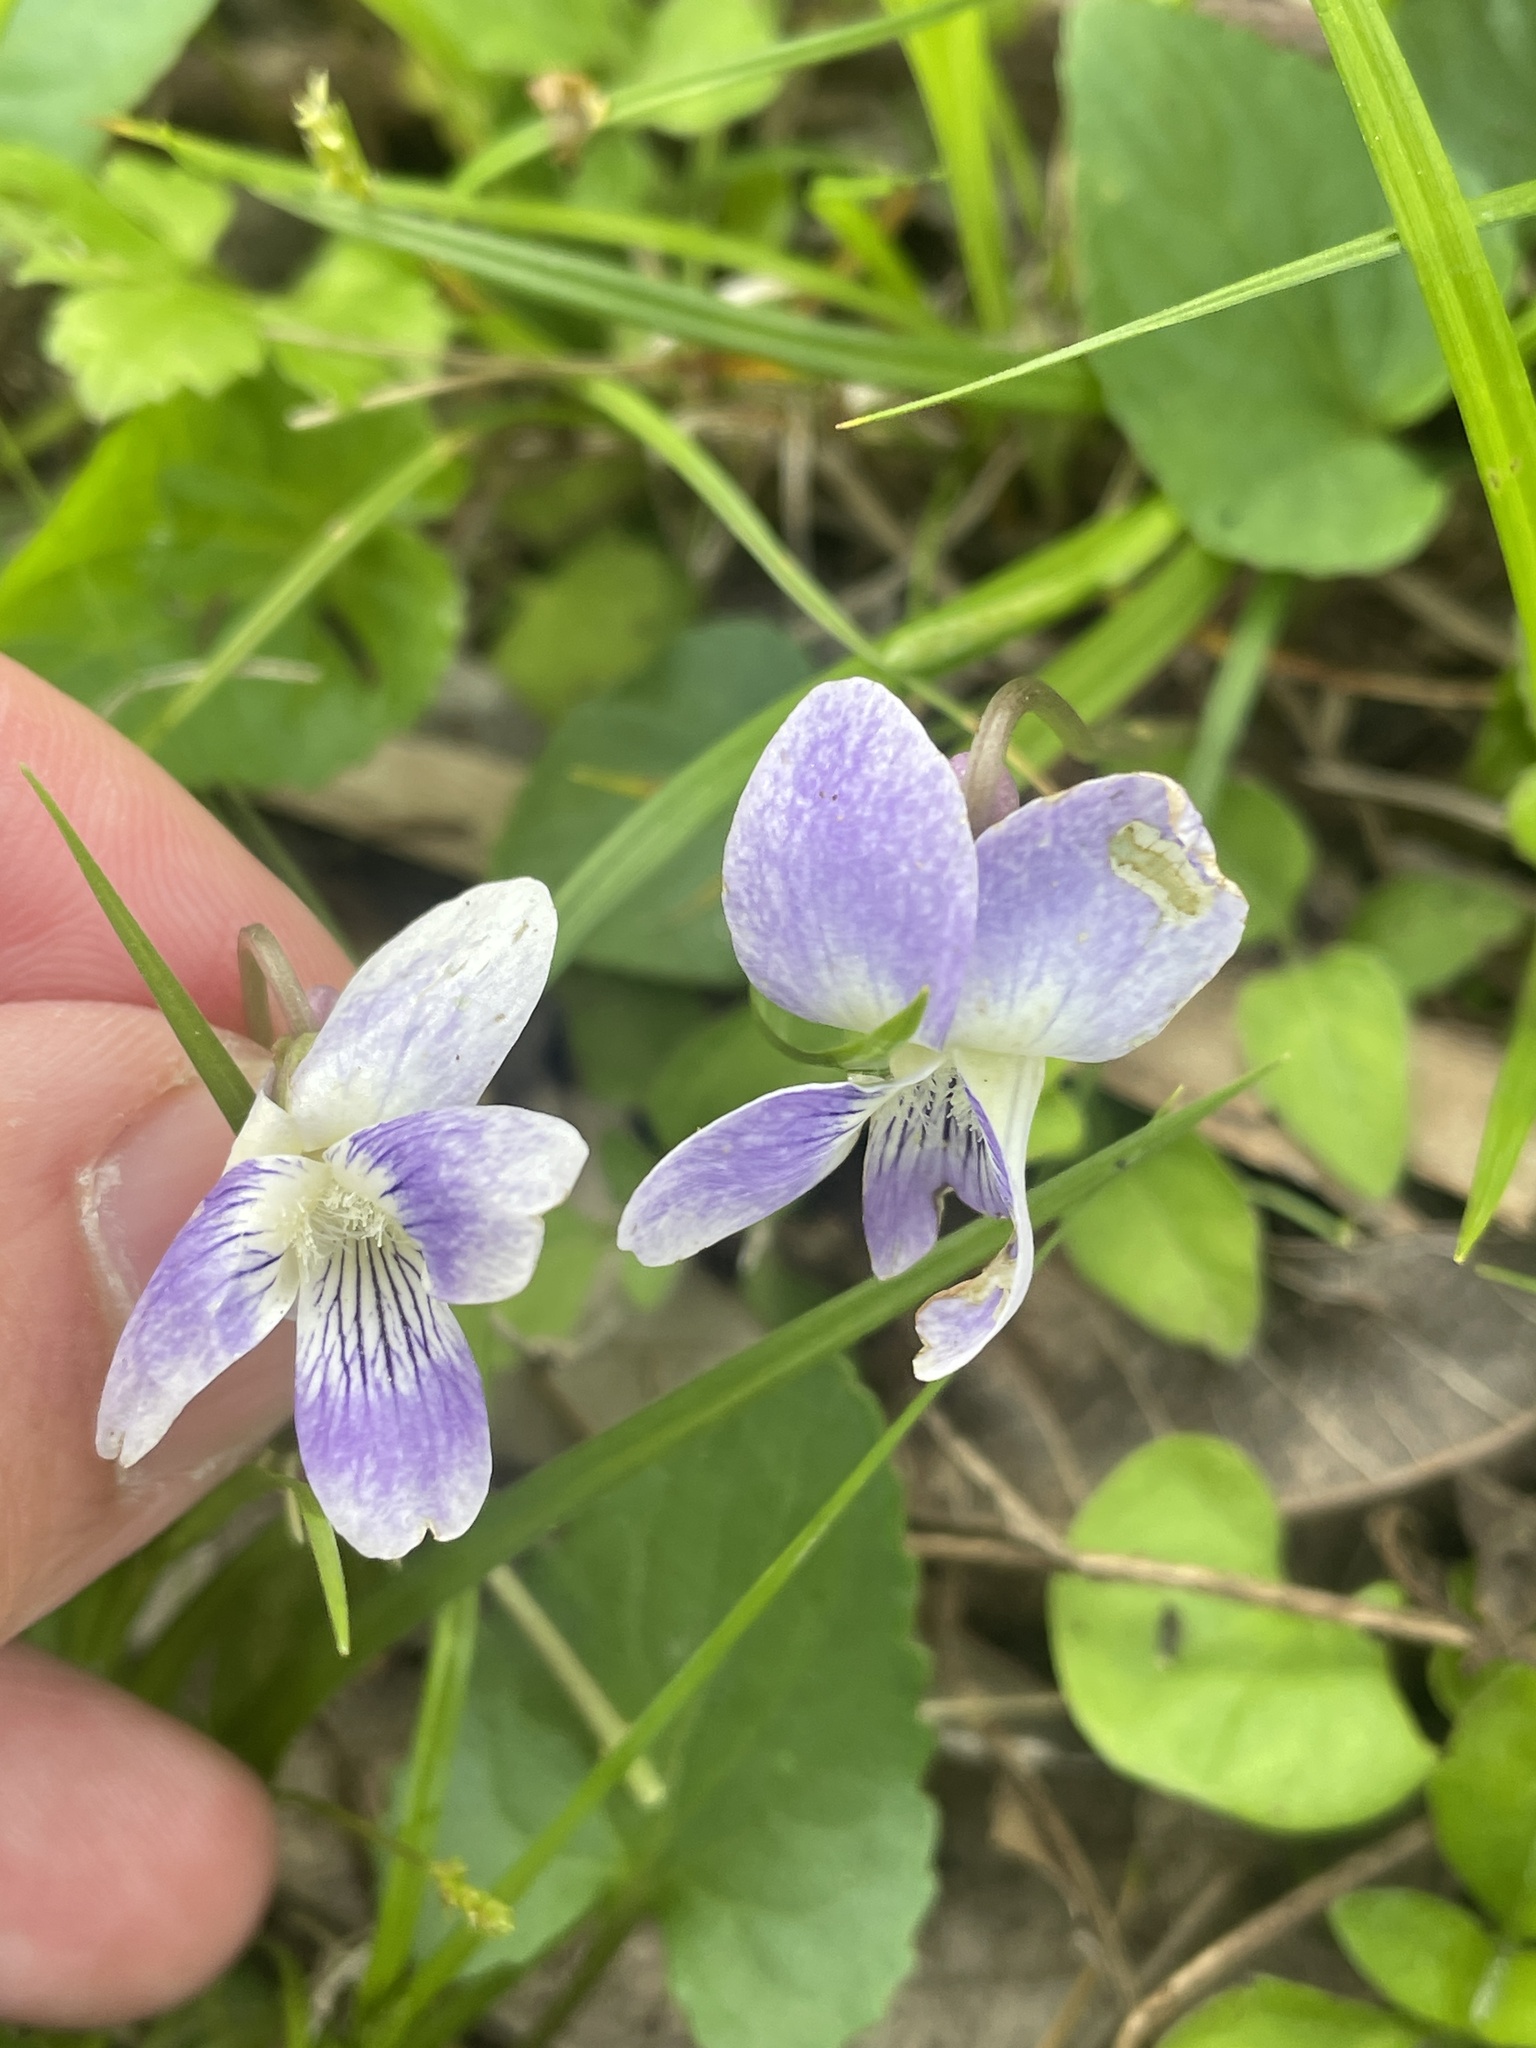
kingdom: Plantae
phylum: Tracheophyta
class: Magnoliopsida
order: Malpighiales
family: Violaceae
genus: Viola
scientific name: Viola missouriensis
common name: Missouri violet
